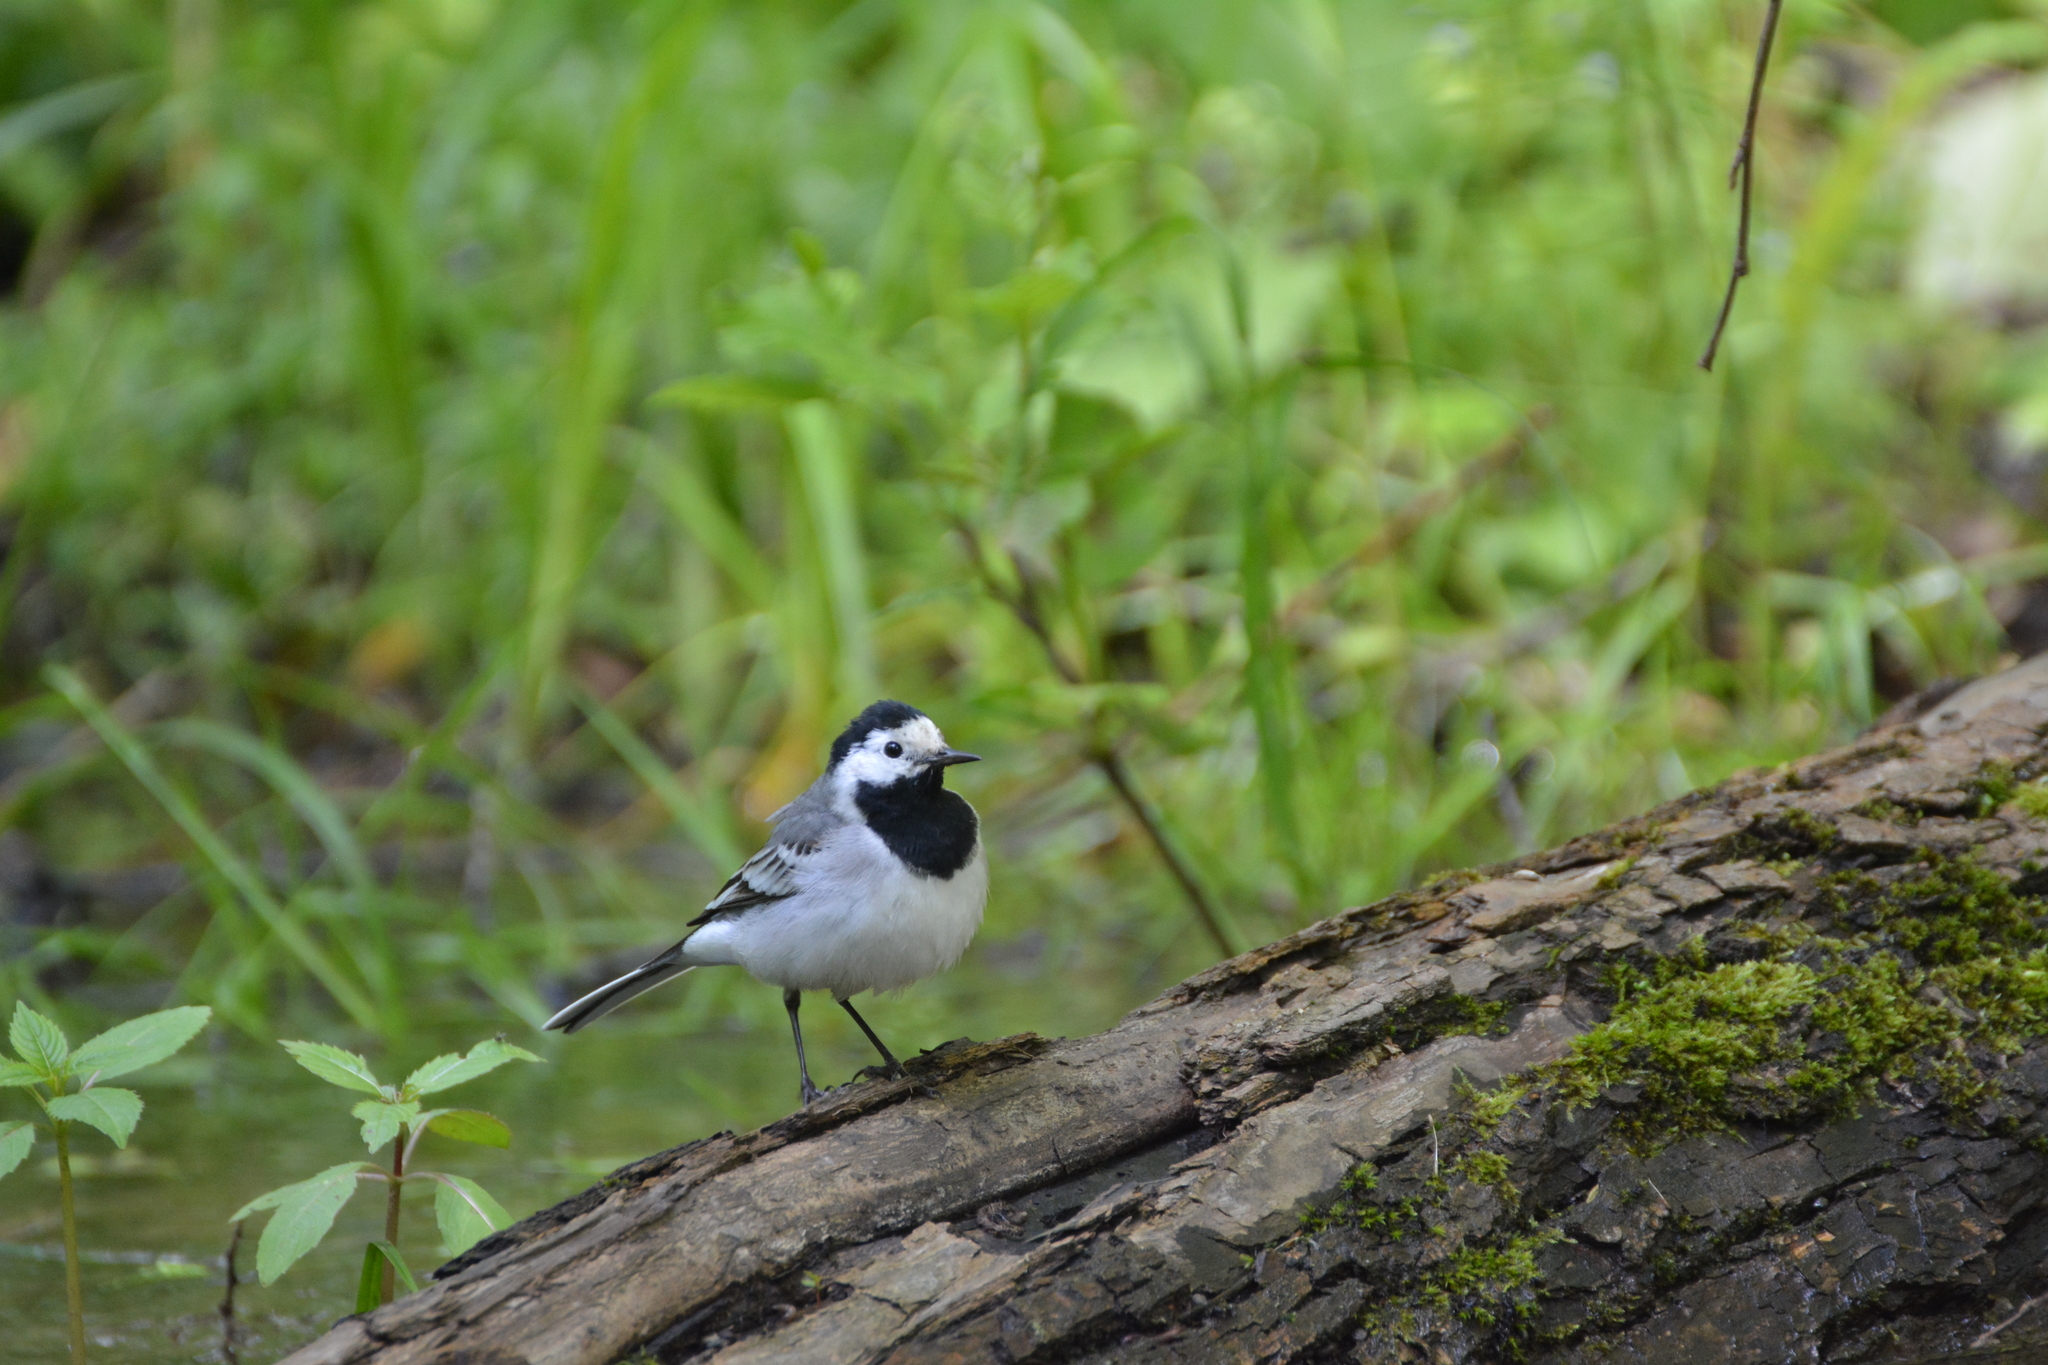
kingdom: Animalia
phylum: Chordata
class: Aves
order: Passeriformes
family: Motacillidae
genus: Motacilla
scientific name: Motacilla alba
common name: White wagtail
